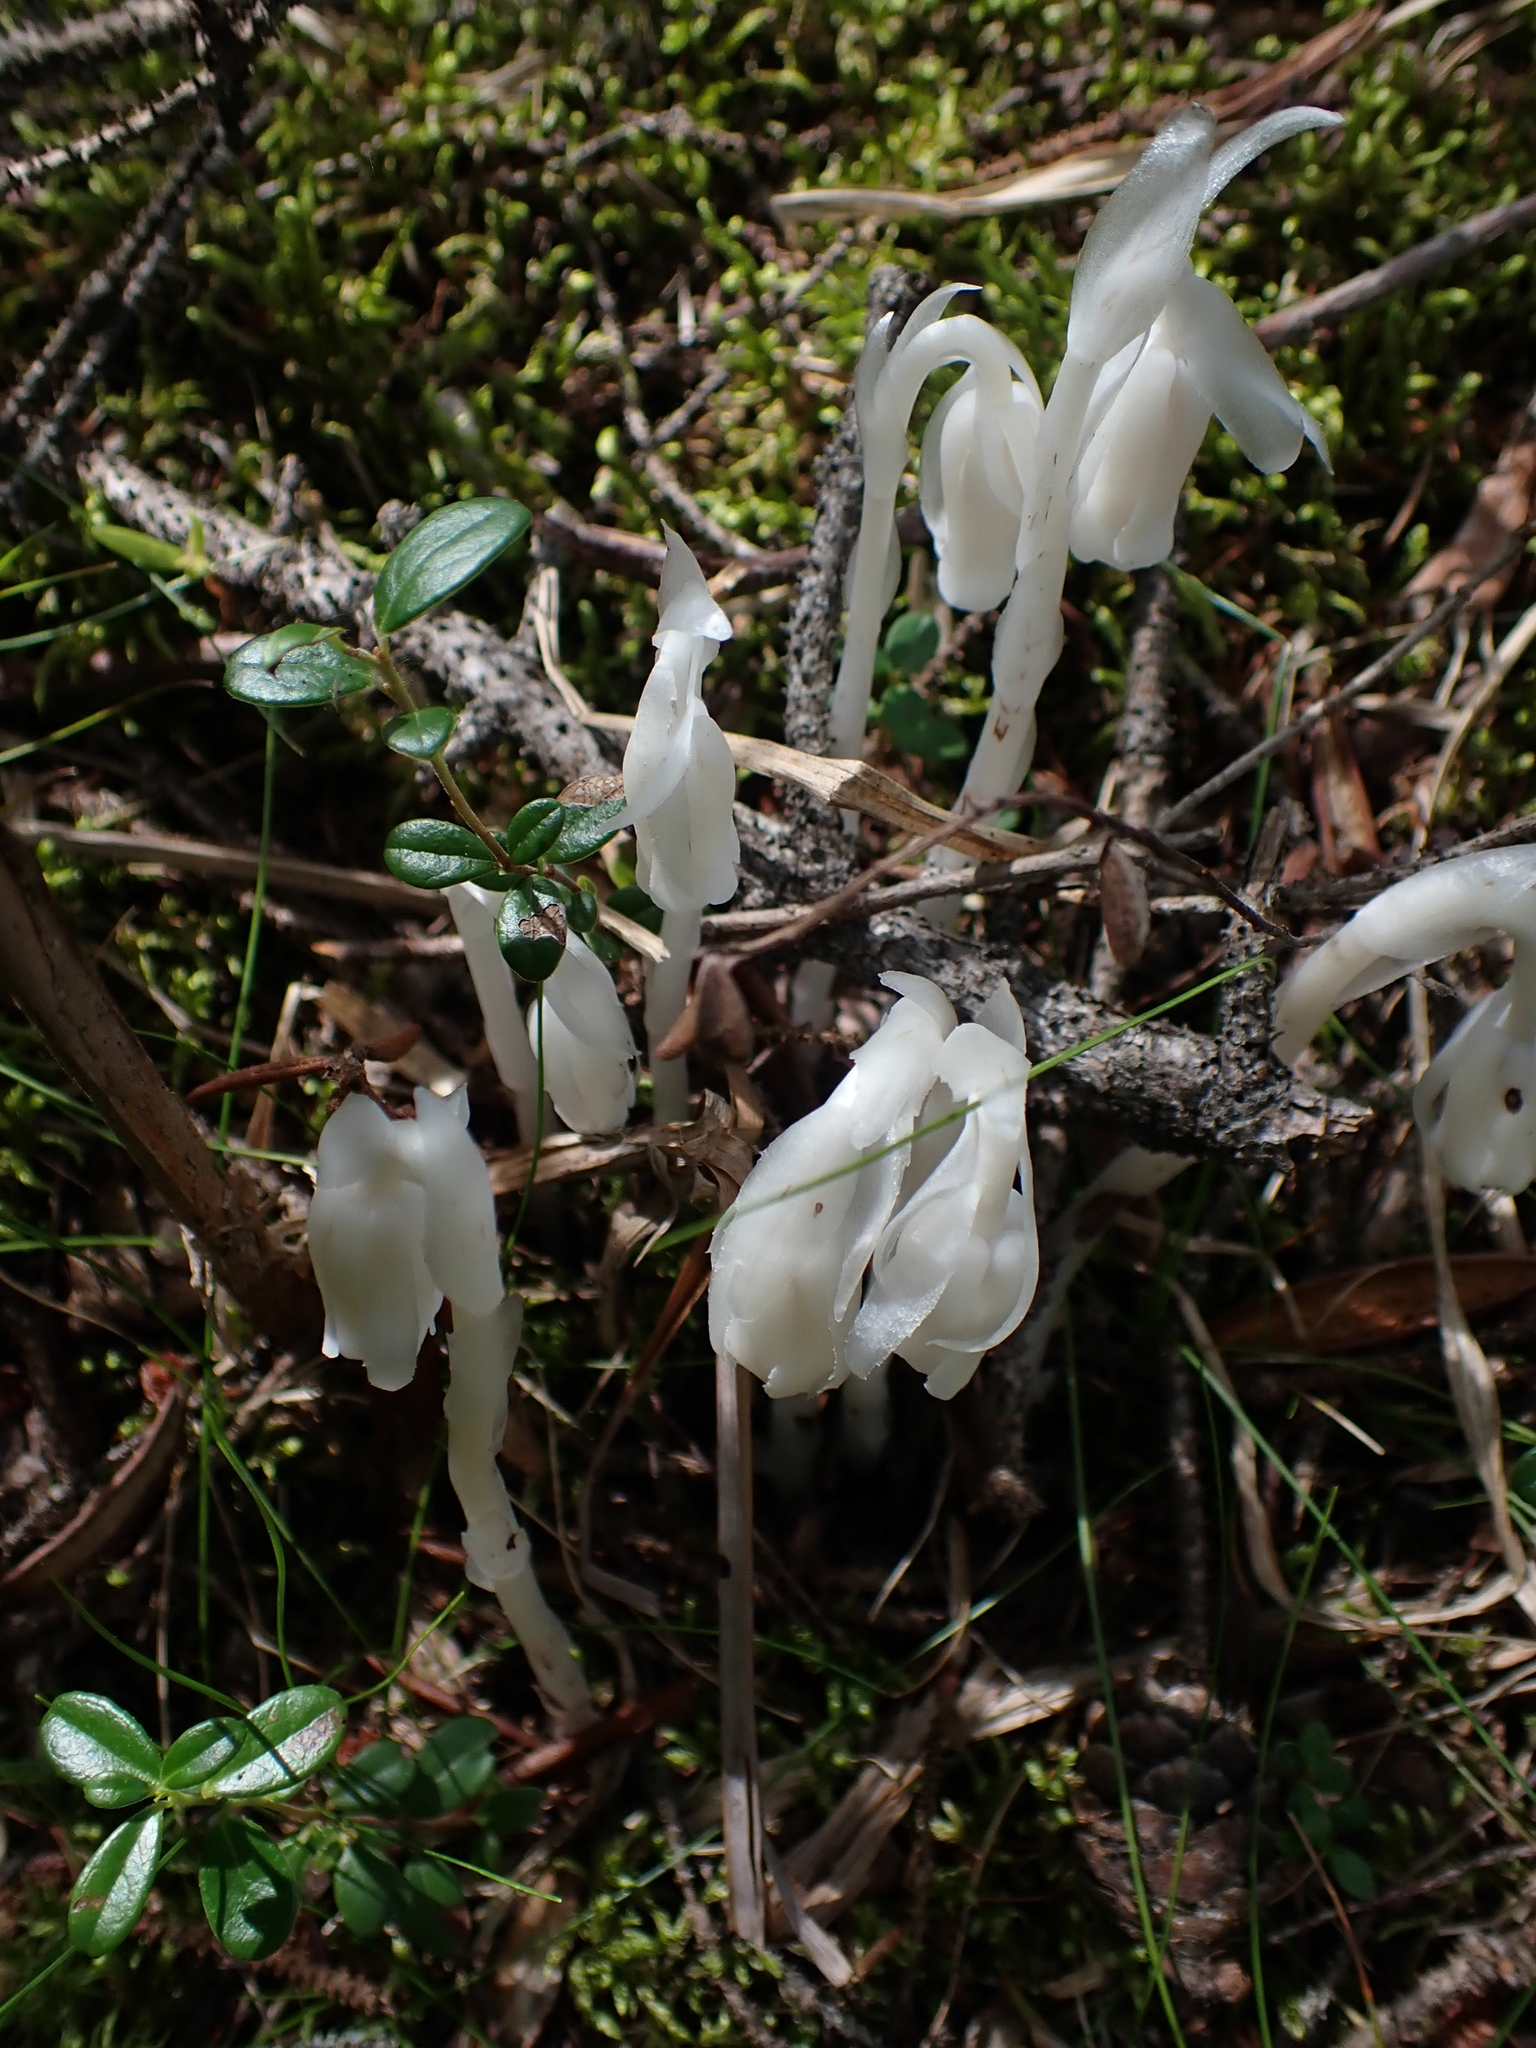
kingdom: Plantae
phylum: Tracheophyta
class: Magnoliopsida
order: Ericales
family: Ericaceae
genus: Monotropa
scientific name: Monotropa uniflora
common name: Convulsion root
